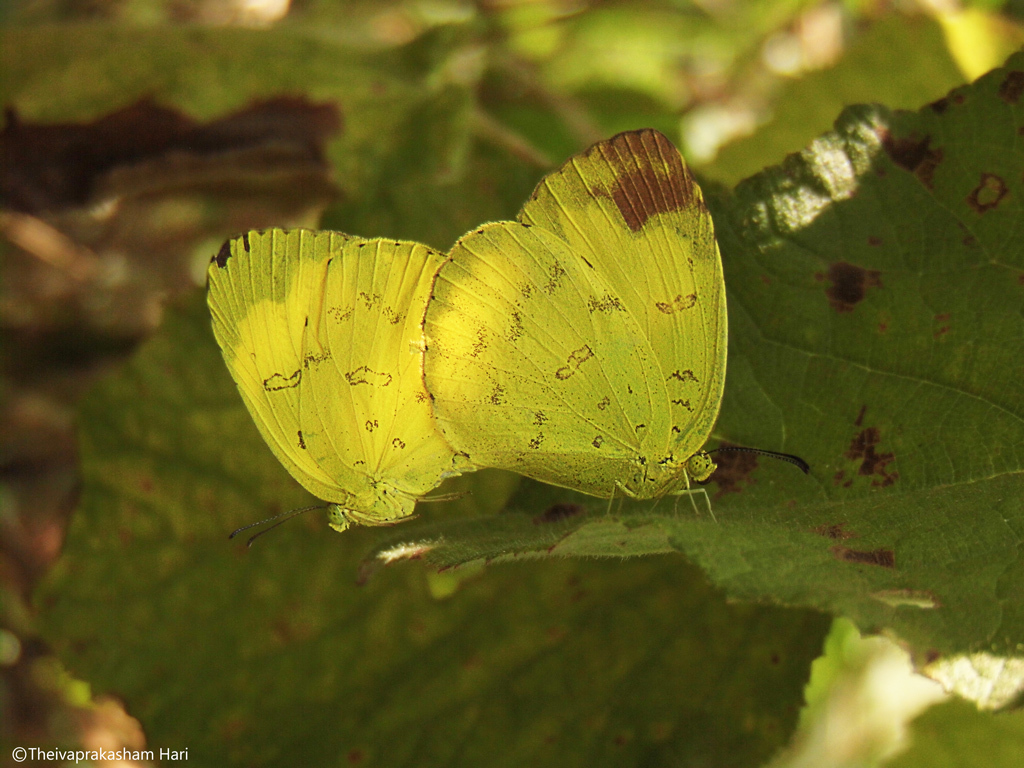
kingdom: Animalia
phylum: Arthropoda
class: Insecta
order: Lepidoptera
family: Pieridae
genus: Eurema
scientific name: Eurema blanda
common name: Three-spot grass yellow
